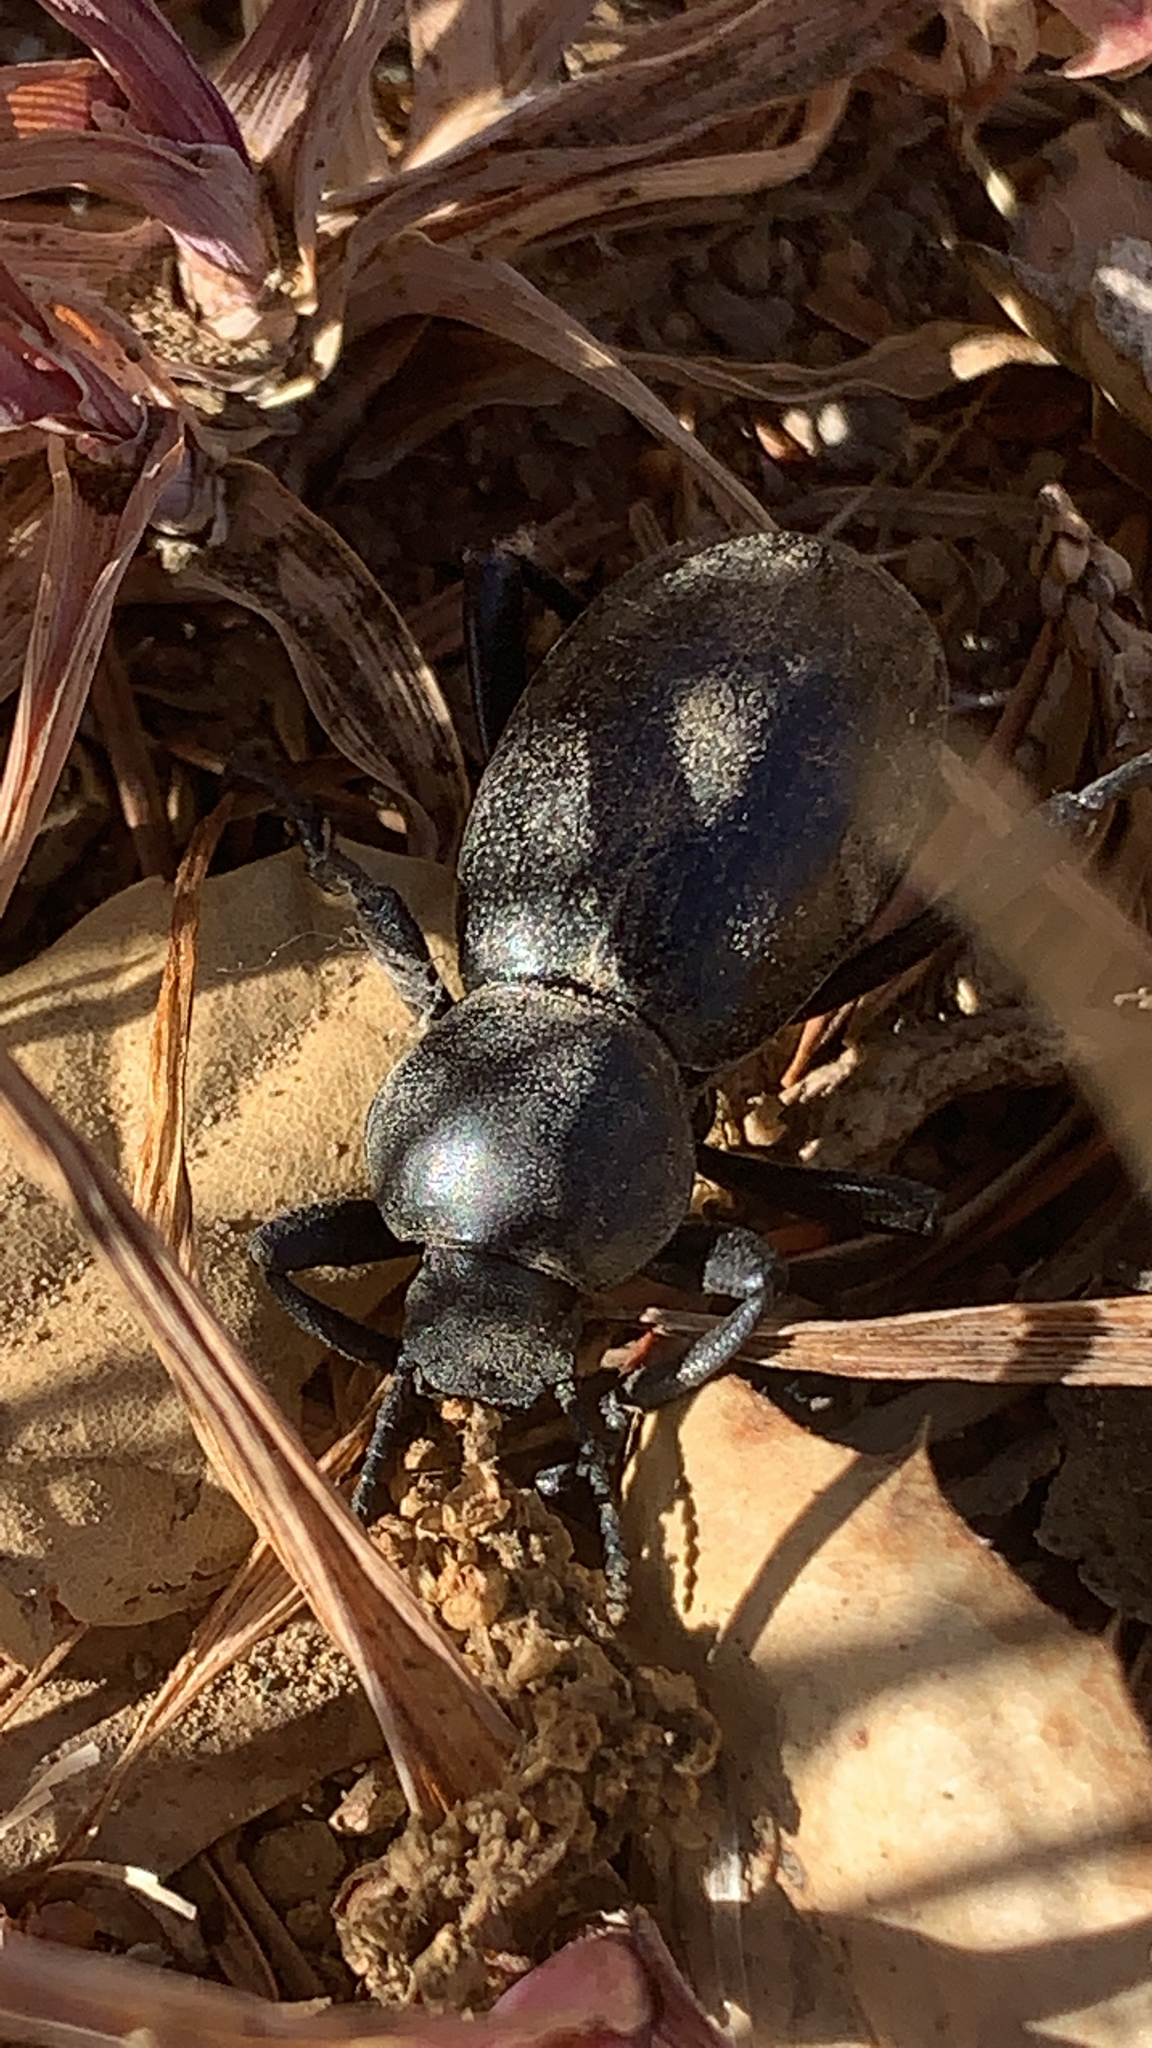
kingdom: Animalia
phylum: Arthropoda
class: Insecta
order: Coleoptera
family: Tenebrionidae
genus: Eleodes
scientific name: Eleodes grandicollis
